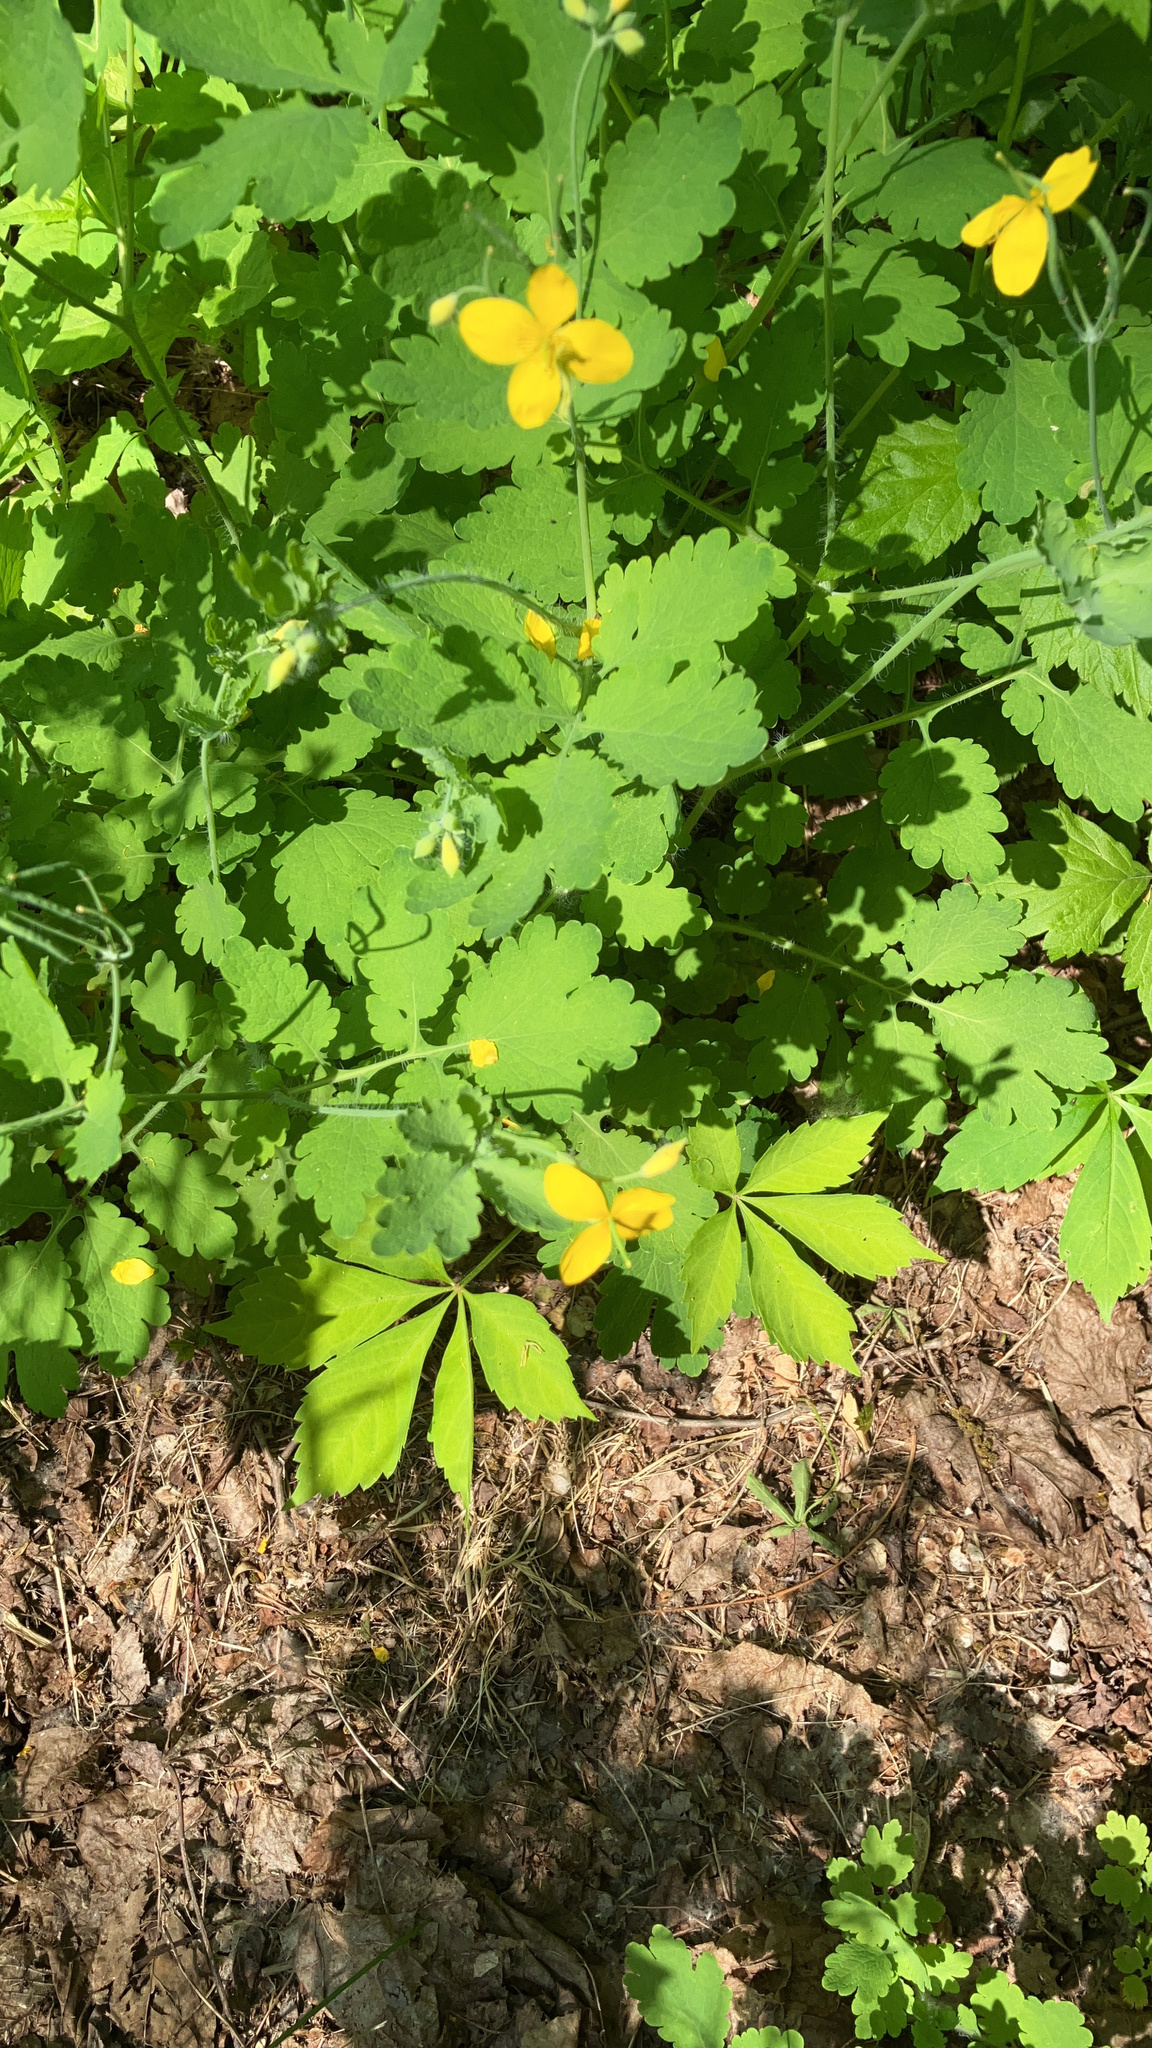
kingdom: Plantae
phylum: Tracheophyta
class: Magnoliopsida
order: Ranunculales
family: Papaveraceae
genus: Chelidonium
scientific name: Chelidonium majus
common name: Greater celandine
